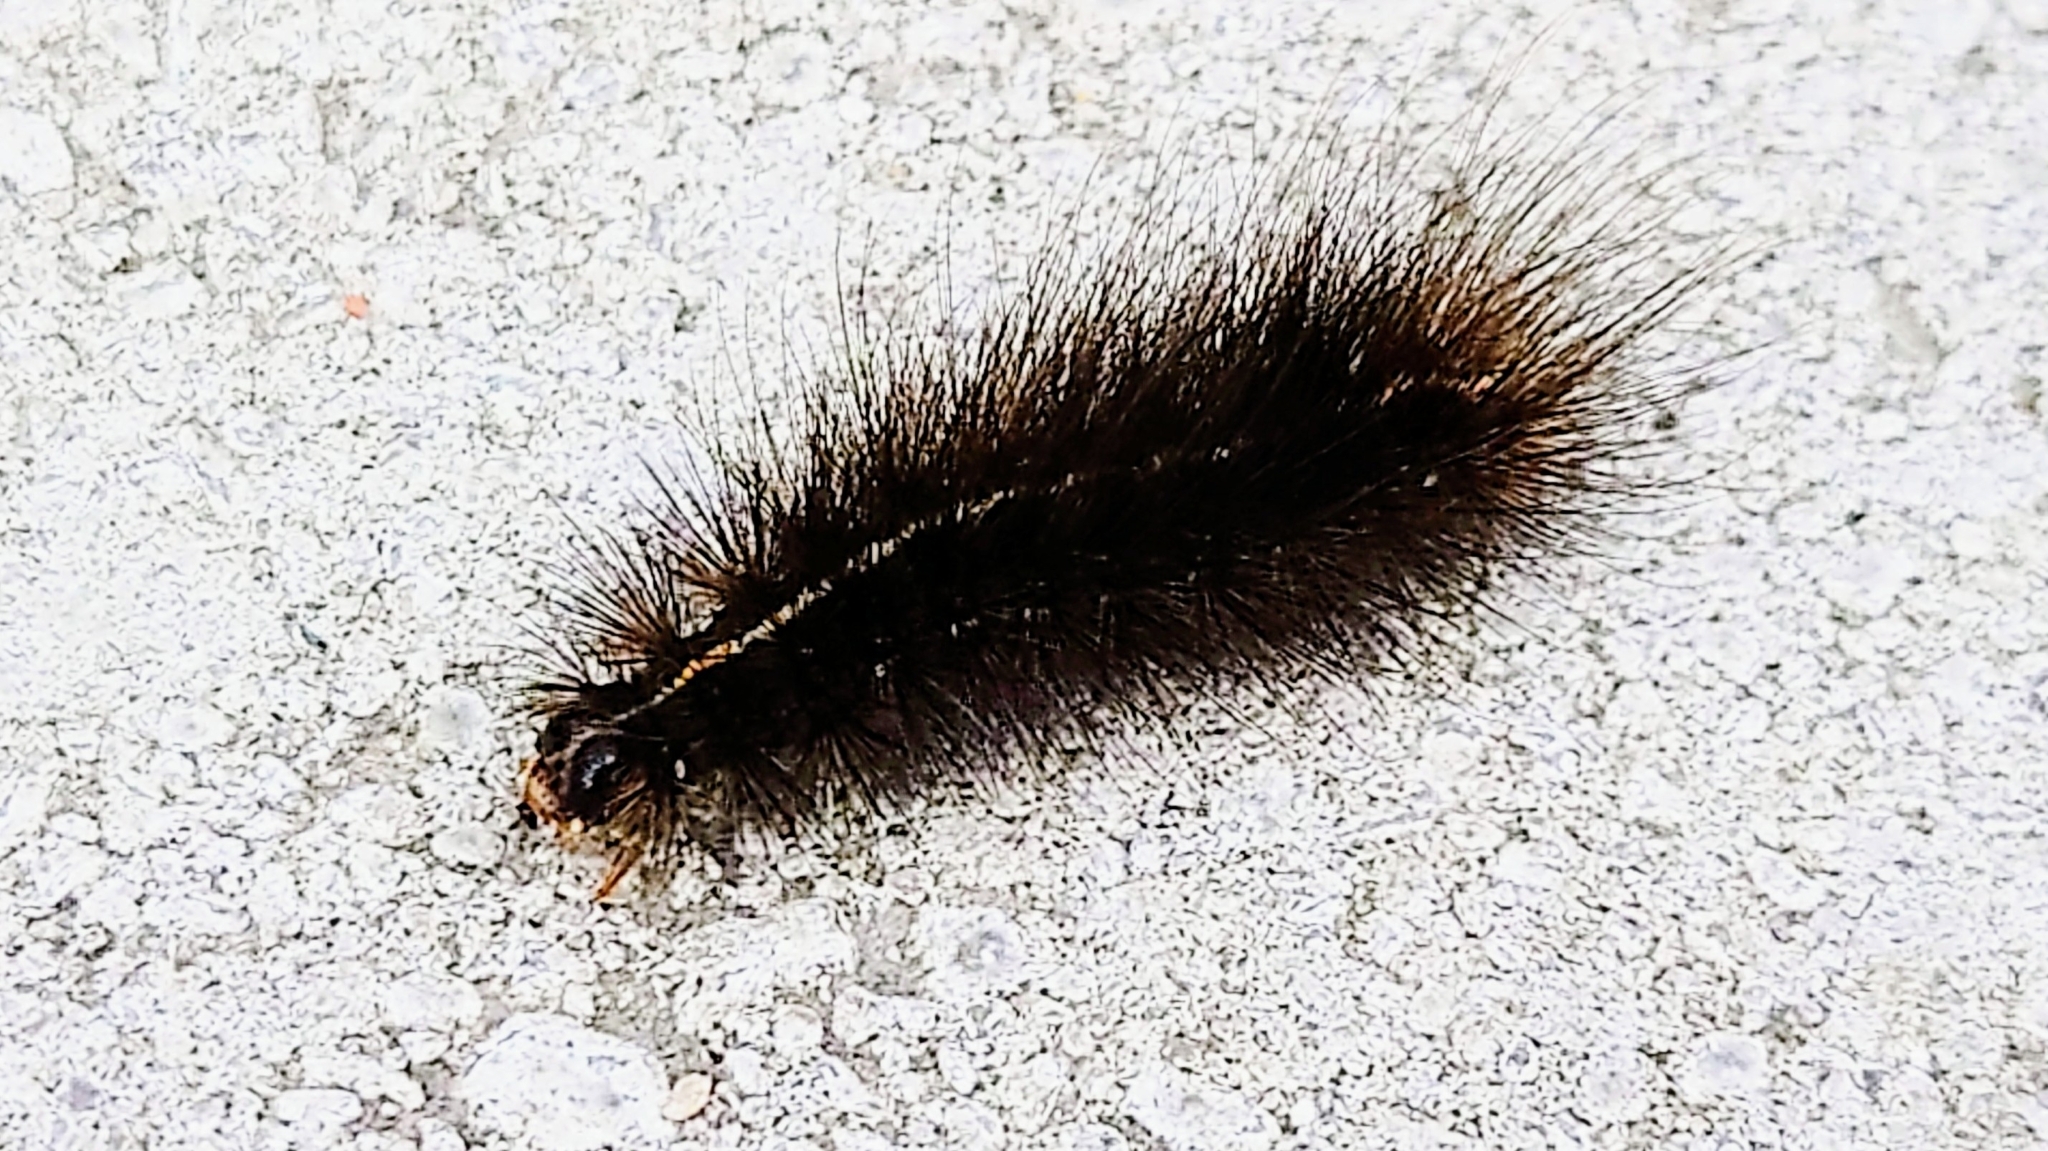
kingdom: Animalia
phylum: Arthropoda
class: Insecta
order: Lepidoptera
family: Erebidae
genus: Spilosoma
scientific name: Spilosoma lubricipeda
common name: White ermine
